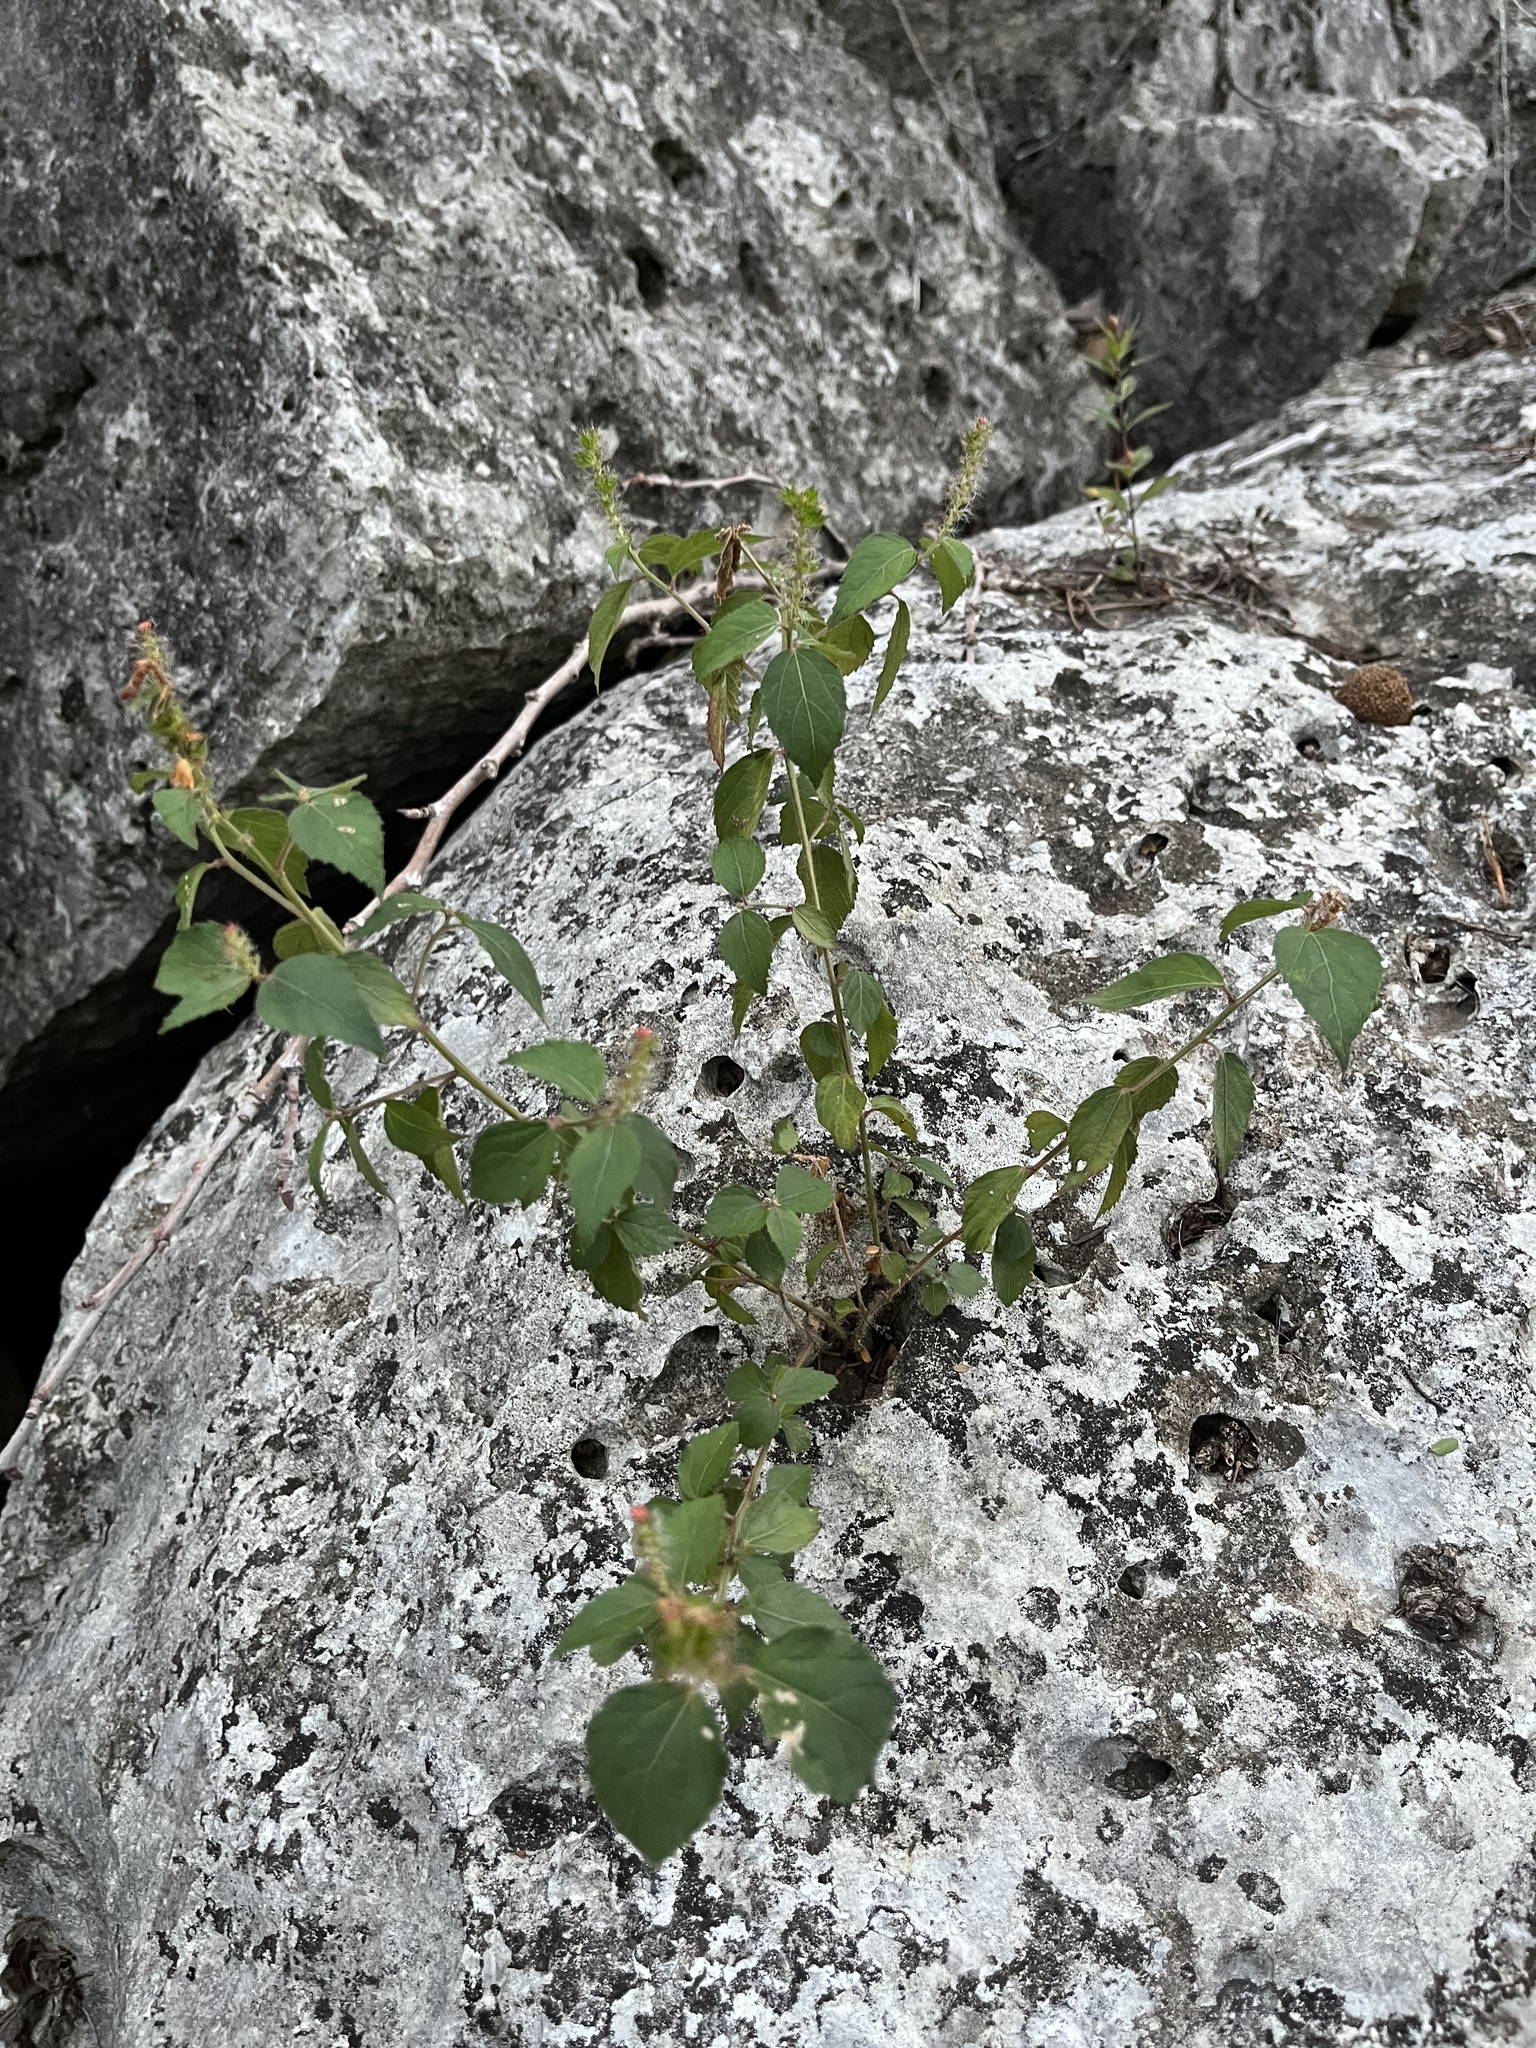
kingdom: Plantae
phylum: Tracheophyta
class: Magnoliopsida
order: Malpighiales
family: Euphorbiaceae
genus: Acalypha
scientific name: Acalypha phleoides
